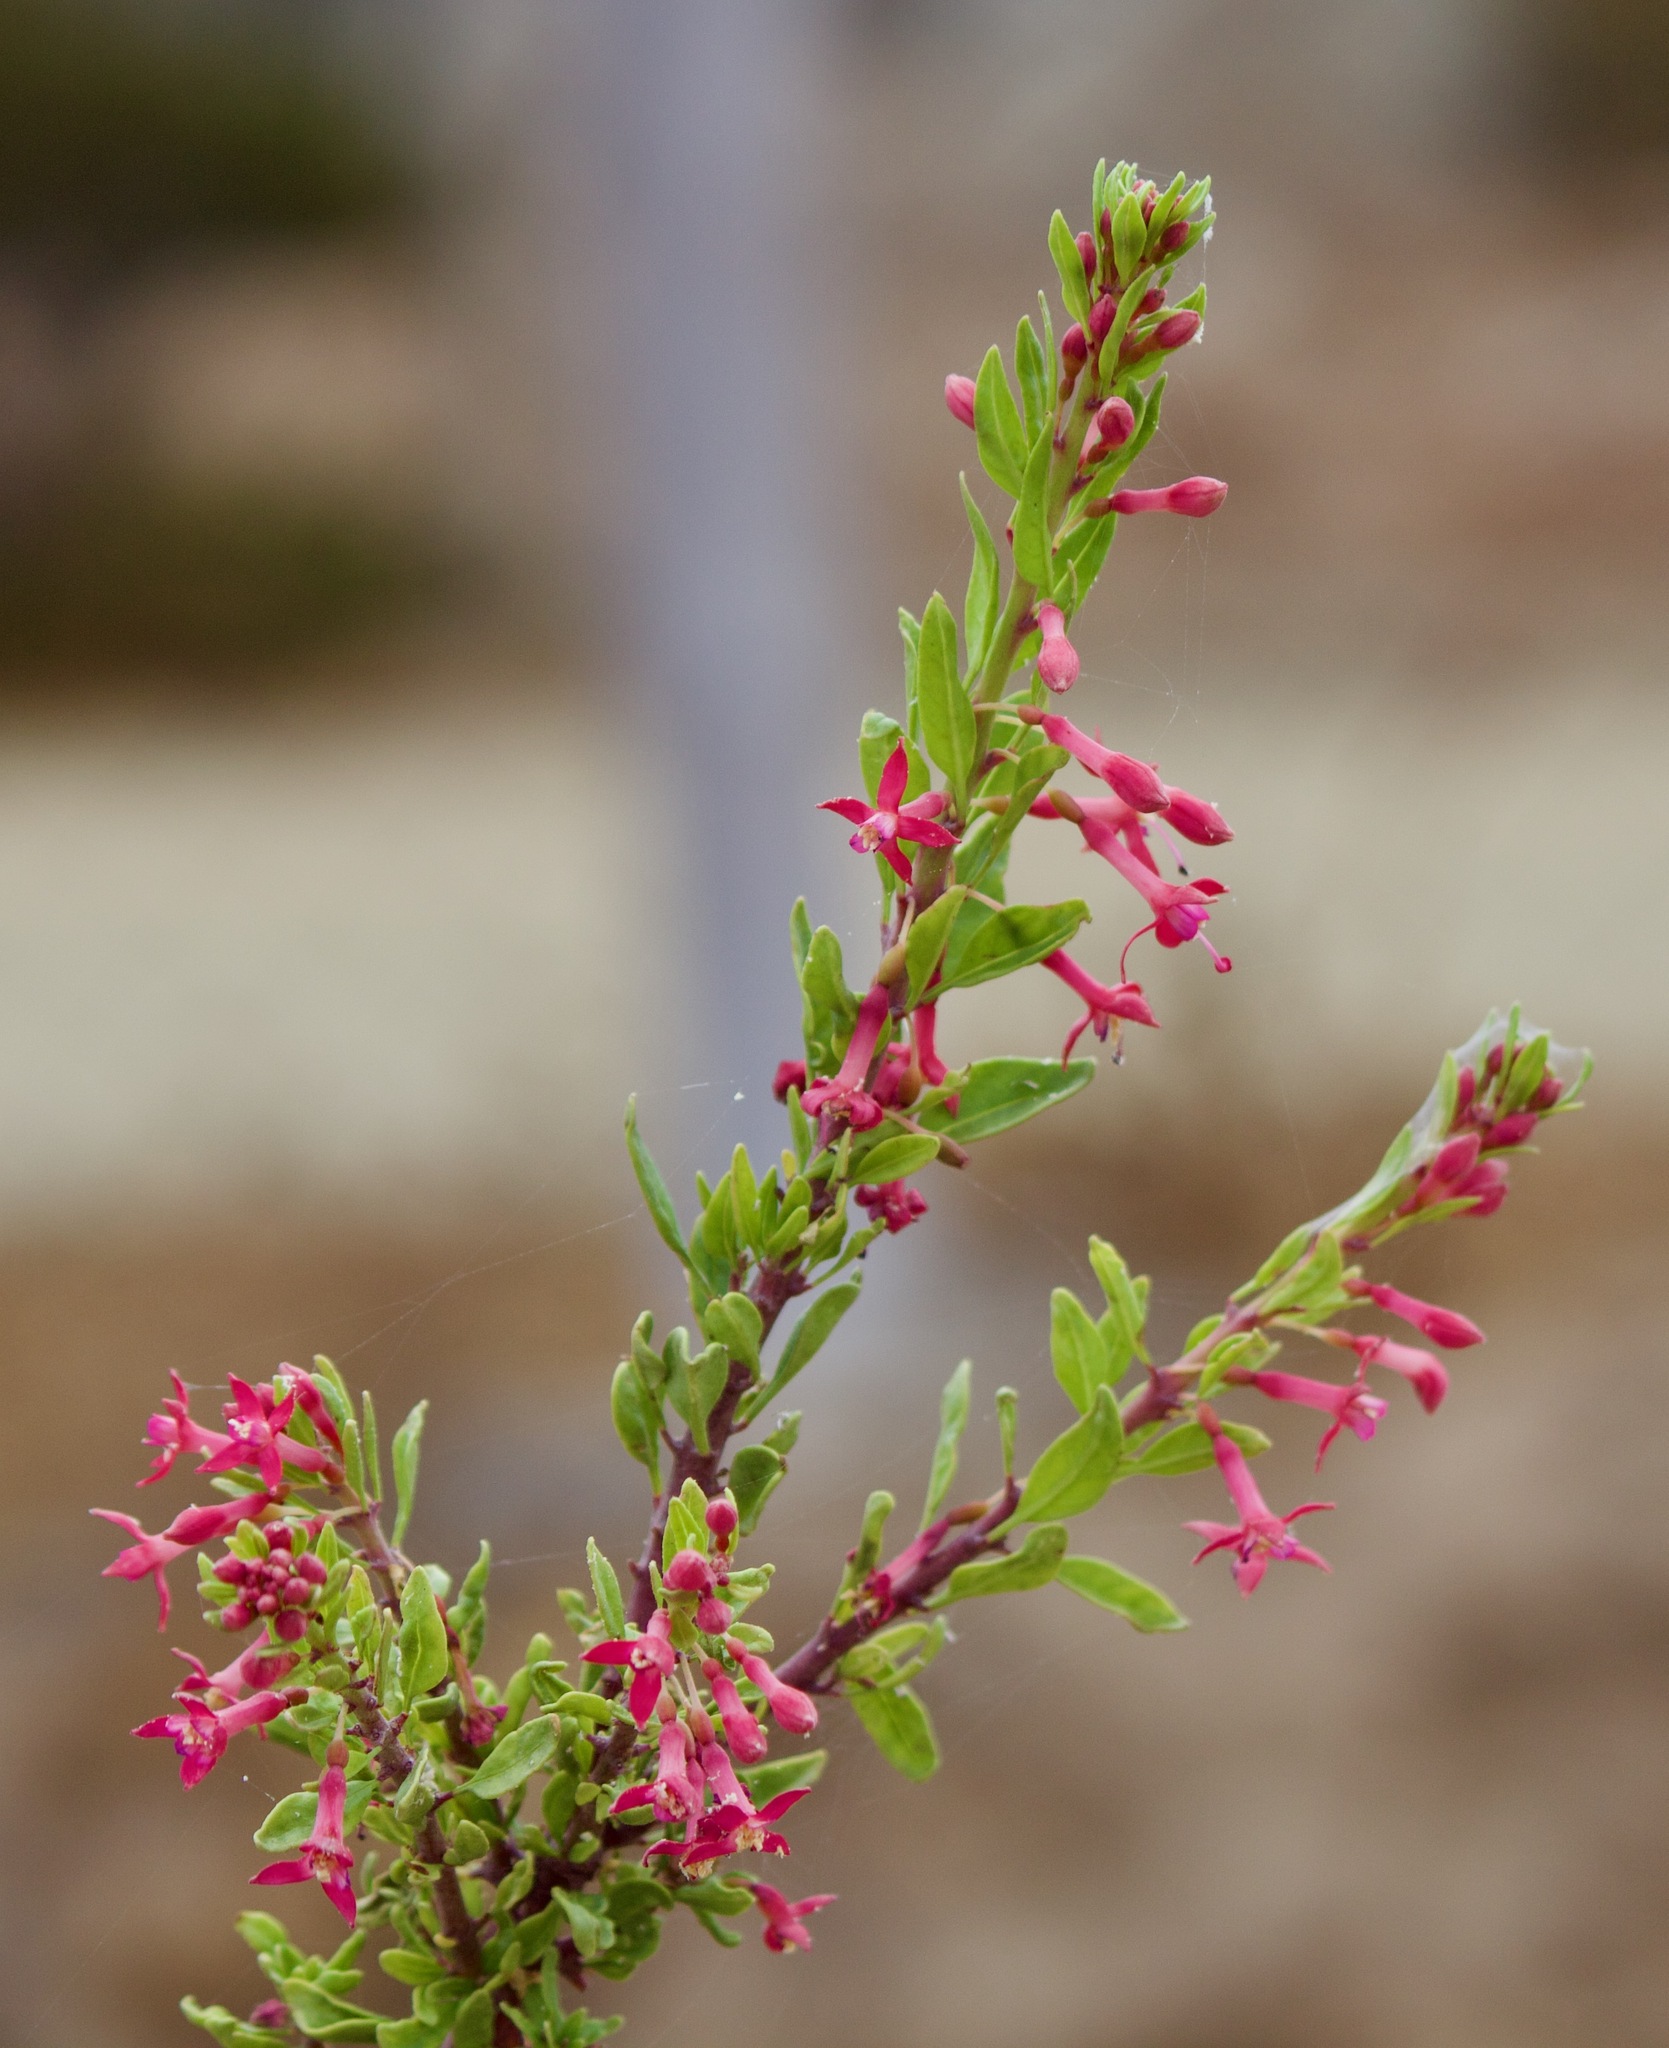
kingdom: Plantae
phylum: Tracheophyta
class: Magnoliopsida
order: Myrtales
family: Onagraceae
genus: Fuchsia
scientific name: Fuchsia lycioides
